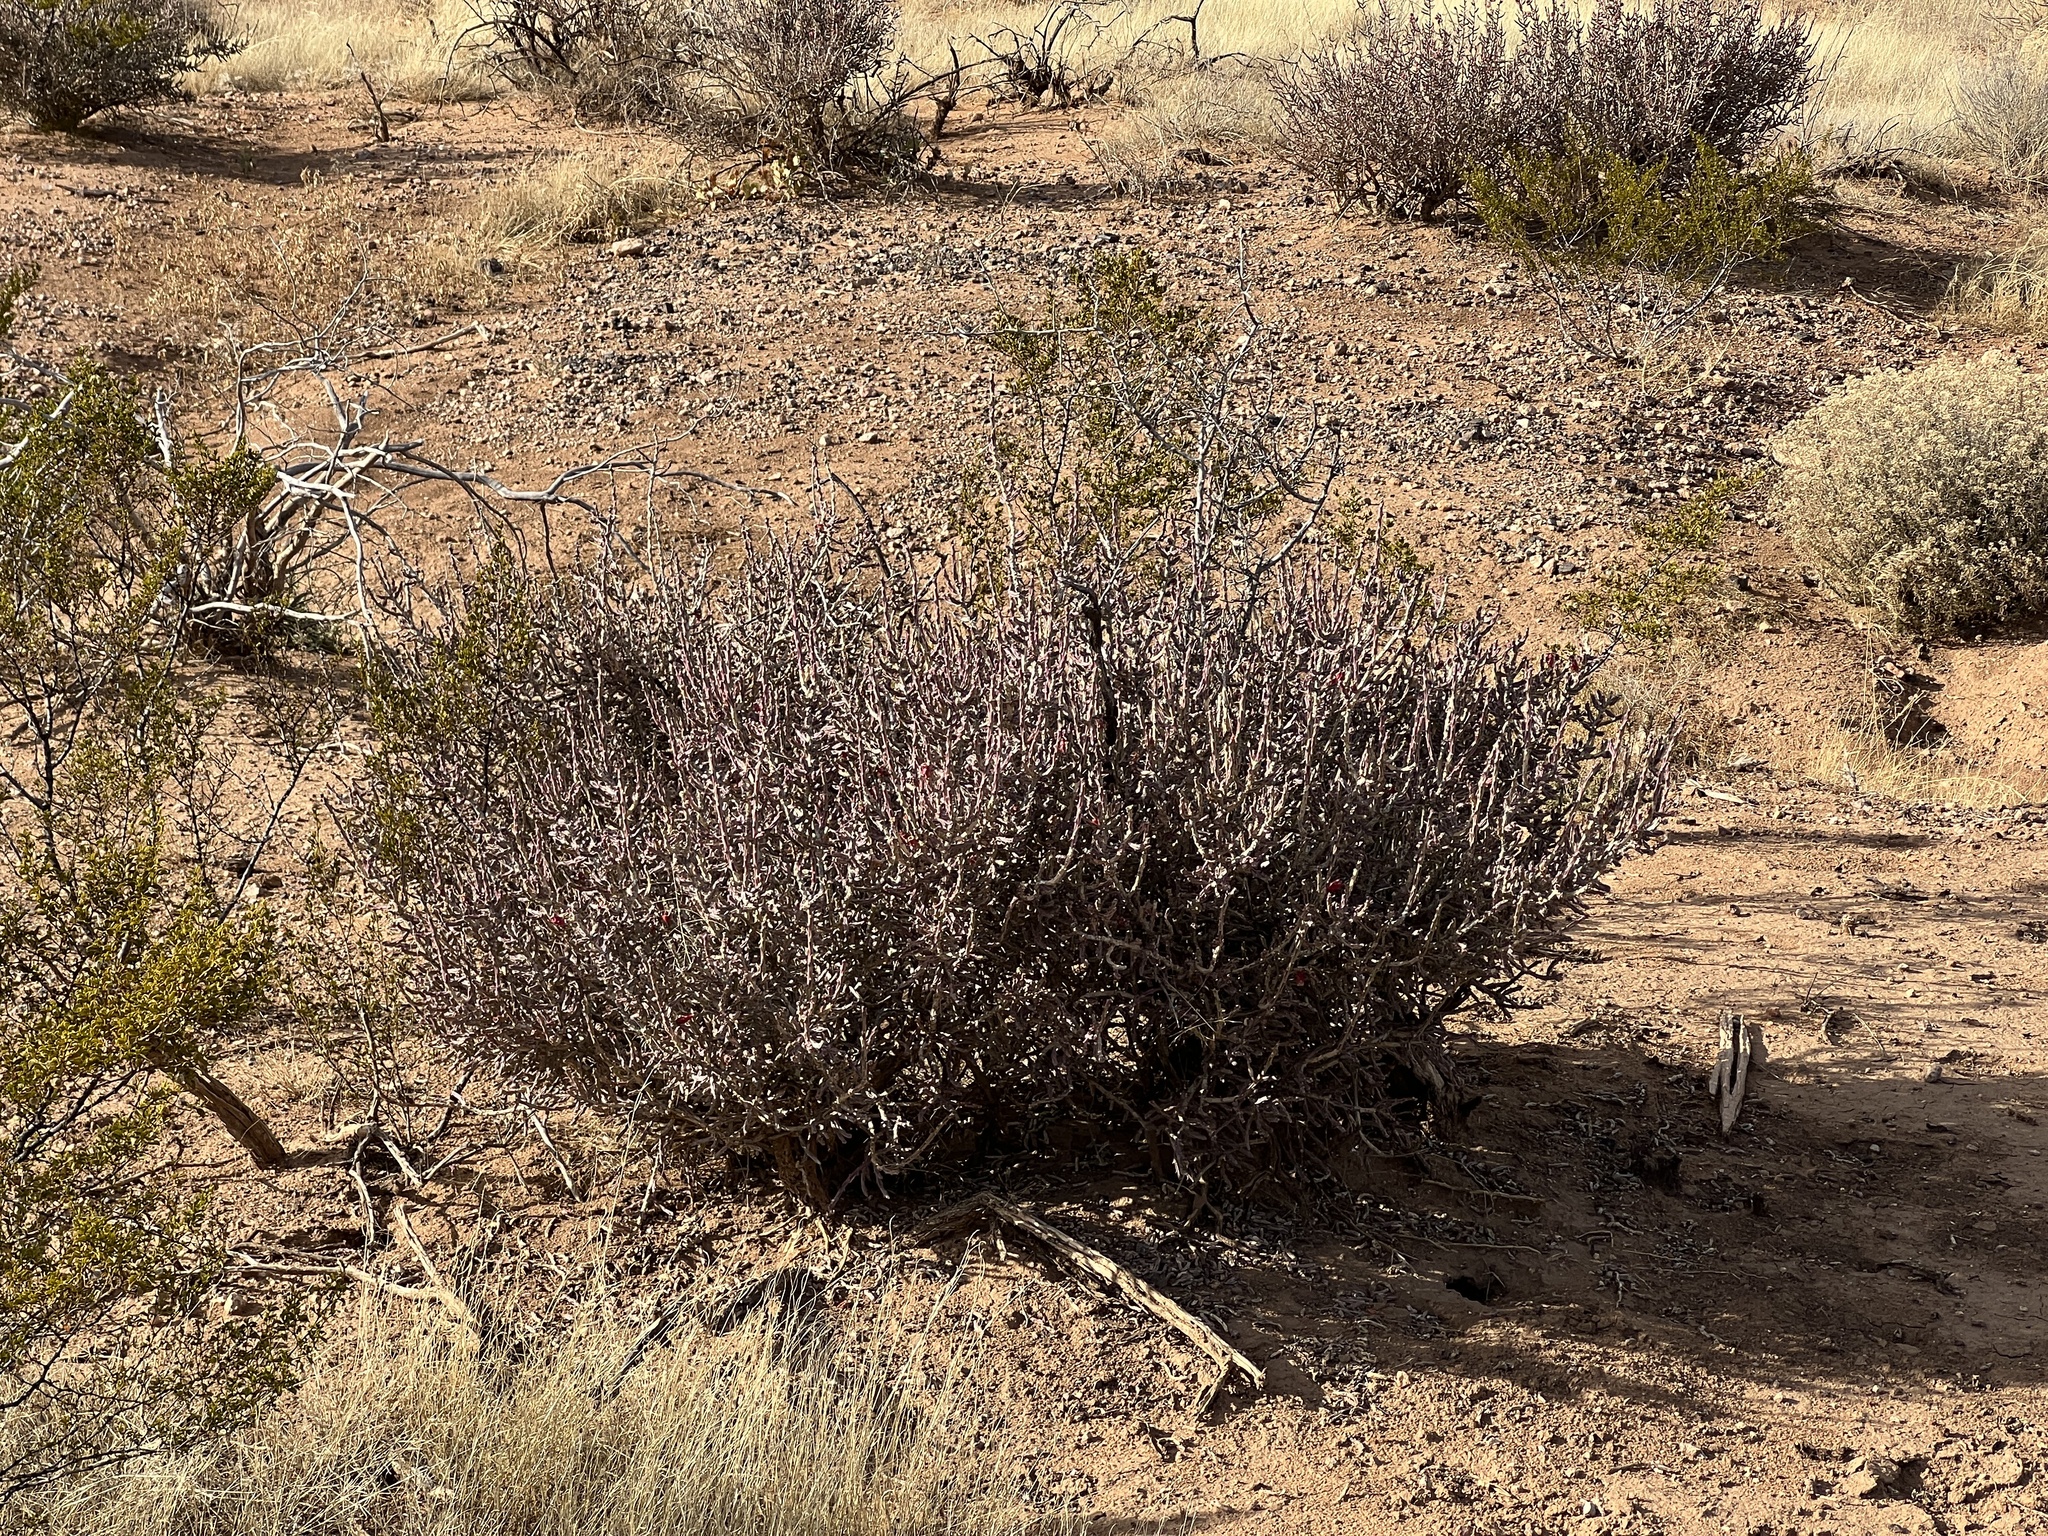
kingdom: Plantae
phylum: Tracheophyta
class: Magnoliopsida
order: Caryophyllales
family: Cactaceae
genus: Cylindropuntia
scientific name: Cylindropuntia leptocaulis
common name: Christmas cactus
